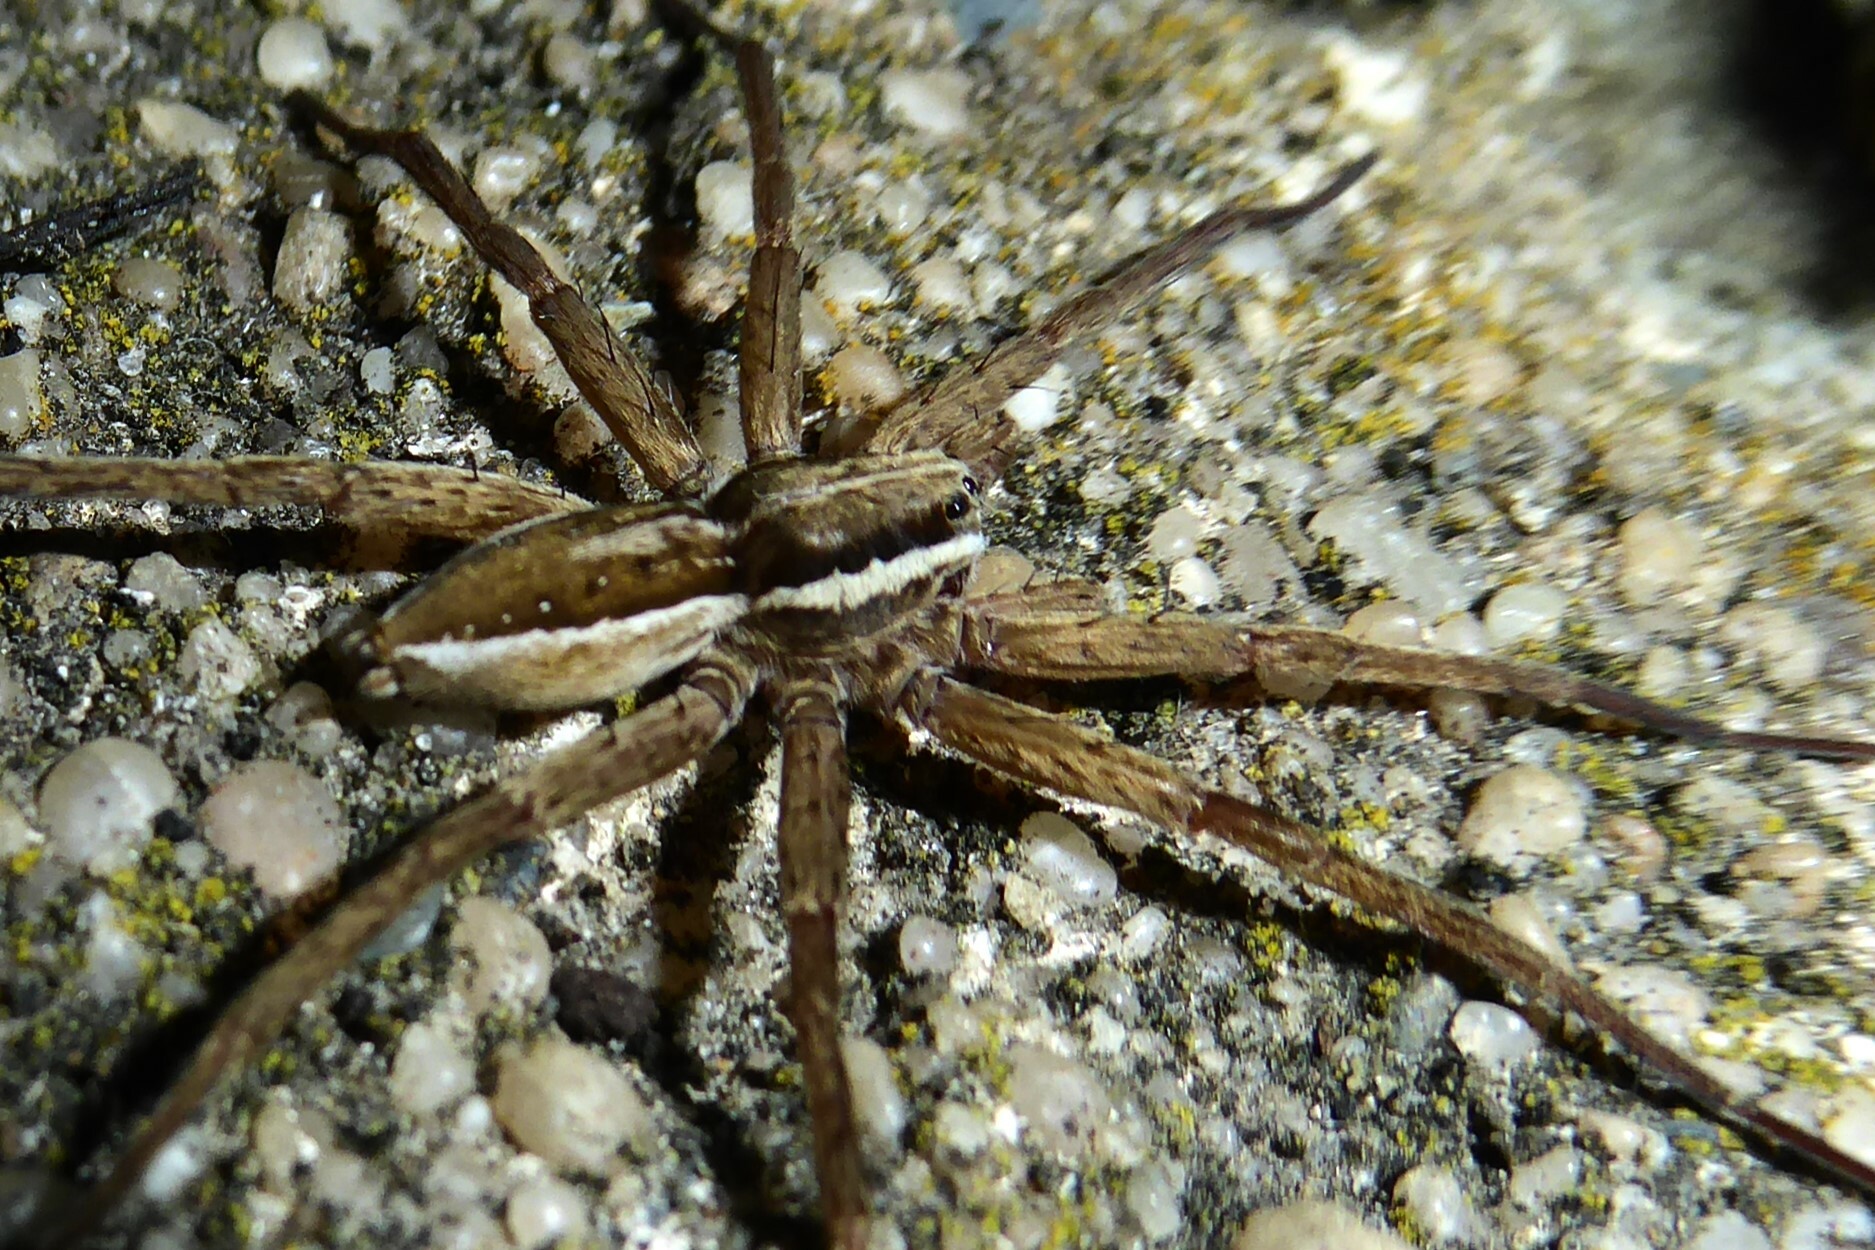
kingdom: Animalia
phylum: Arthropoda
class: Arachnida
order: Araneae
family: Pisauridae
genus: Dolomedes
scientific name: Dolomedes minor
